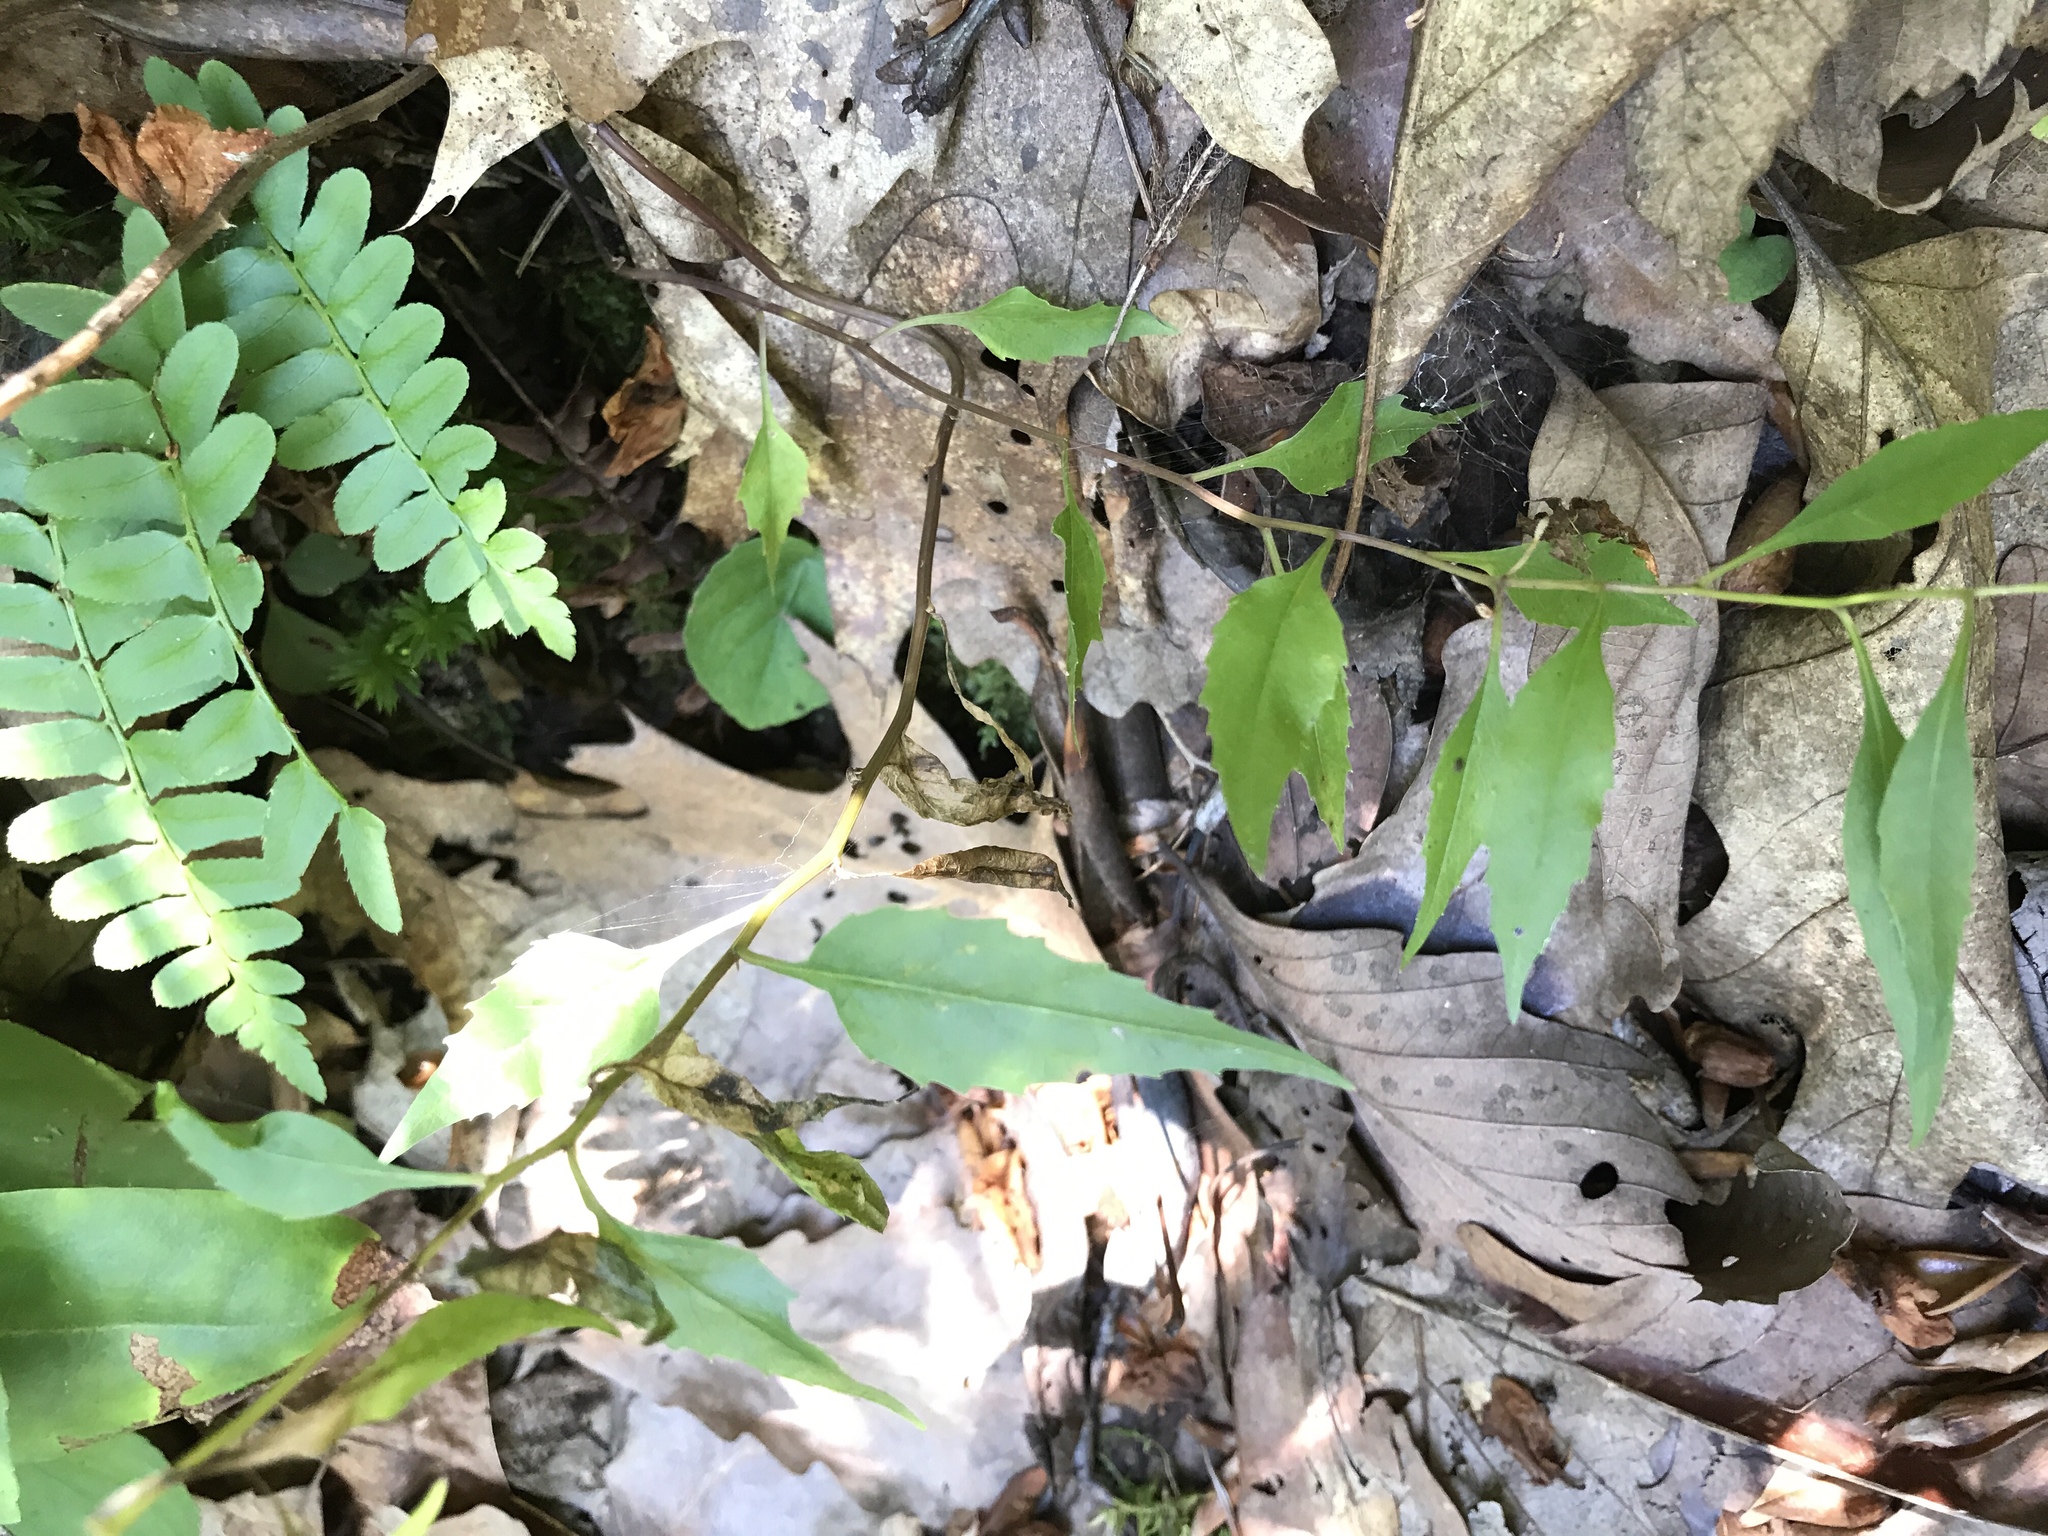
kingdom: Plantae
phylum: Tracheophyta
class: Magnoliopsida
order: Asterales
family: Campanulaceae
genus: Campanula
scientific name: Campanula divaricata
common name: Appalachian bellflower
